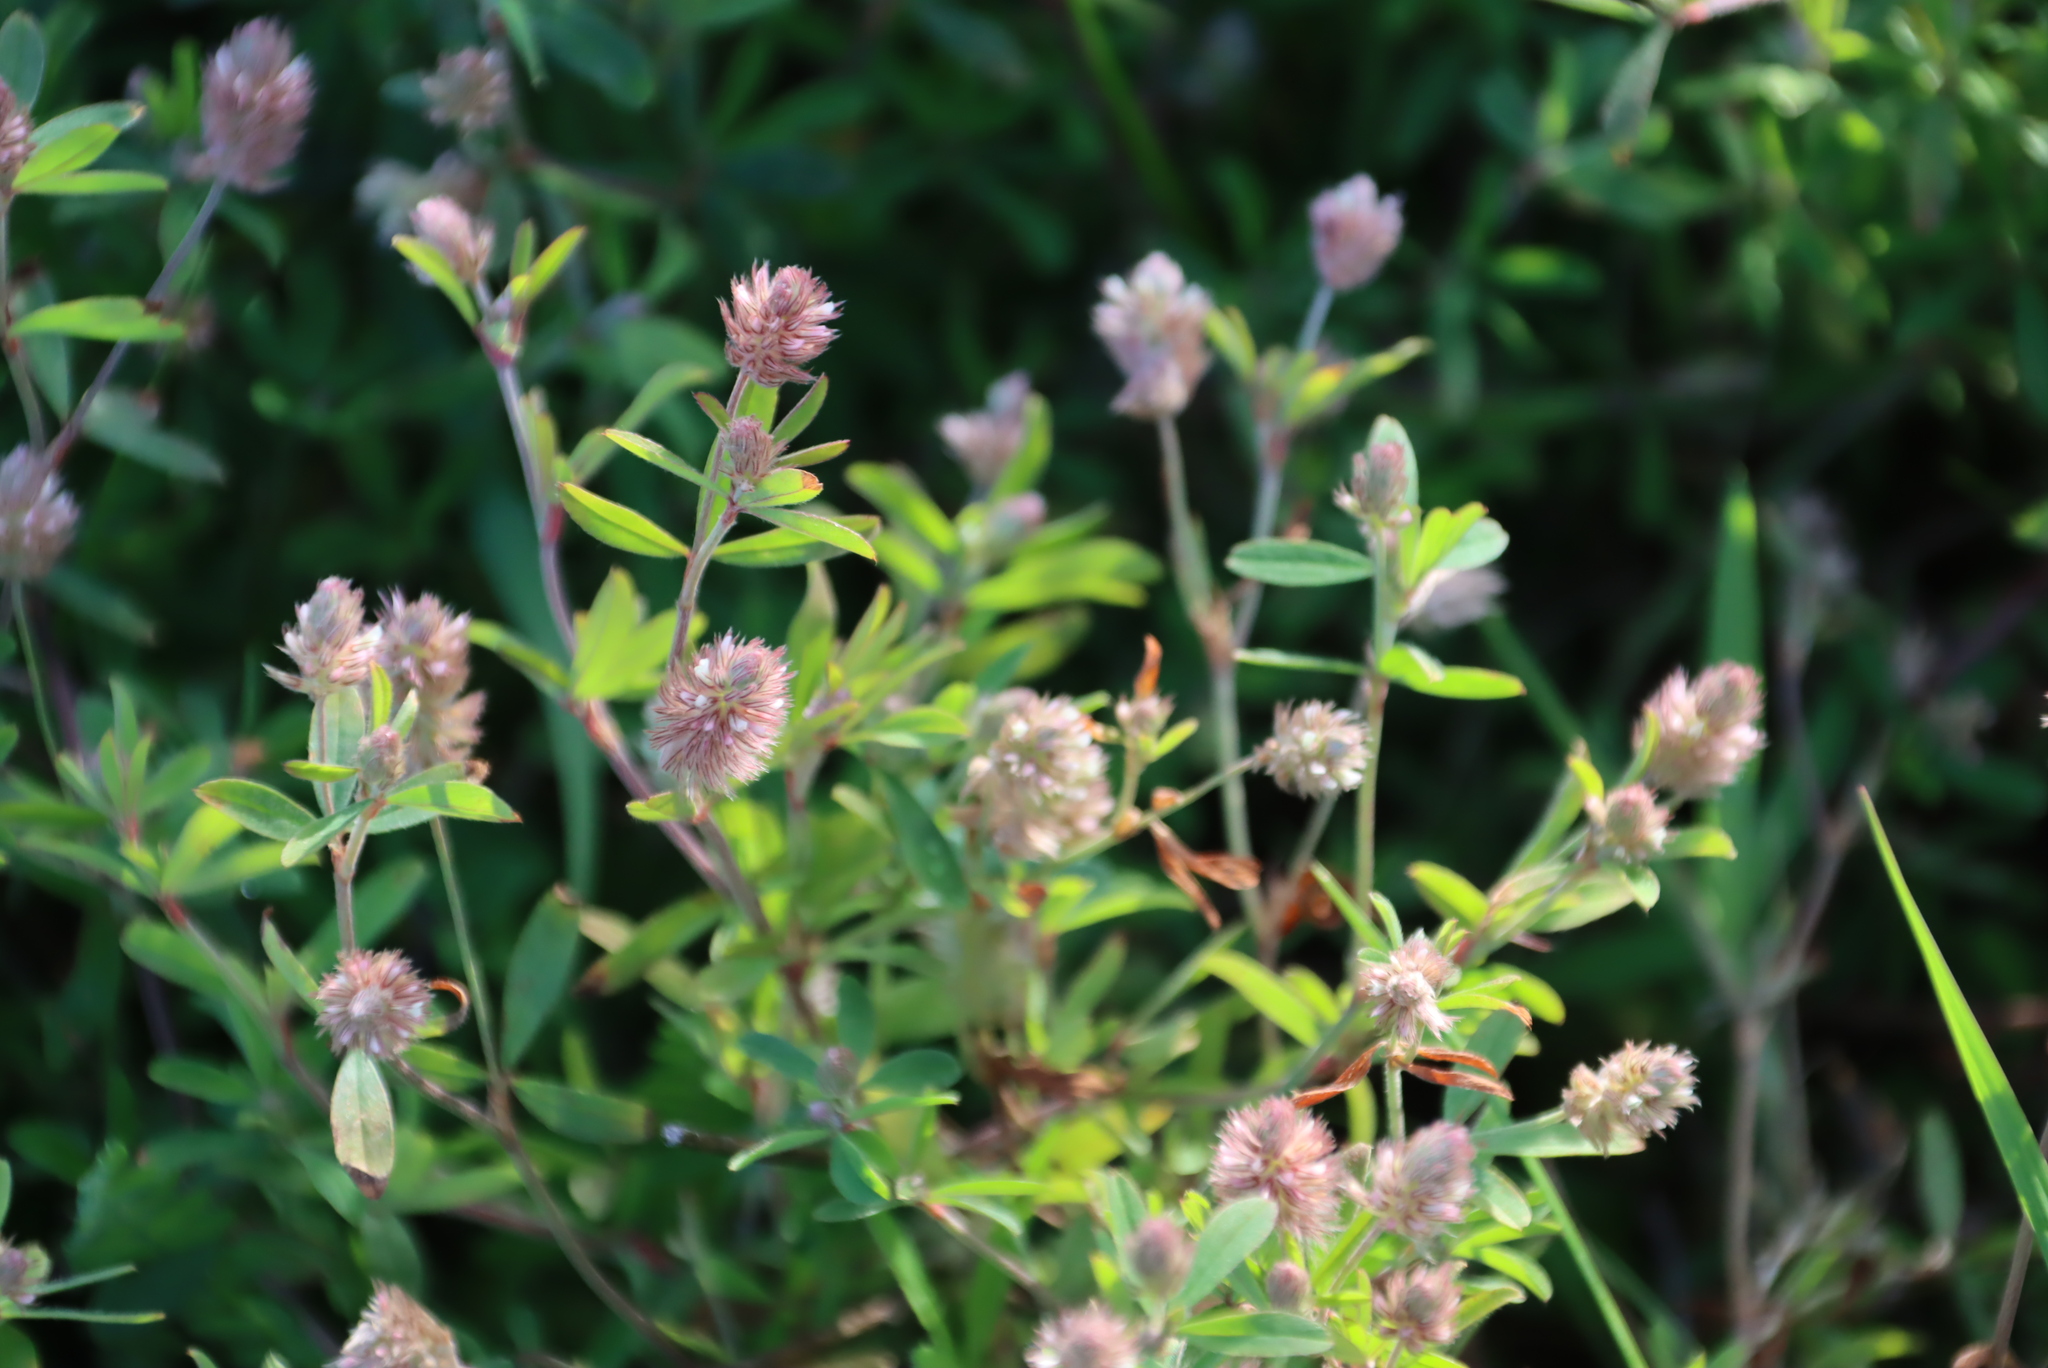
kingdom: Plantae
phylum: Tracheophyta
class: Magnoliopsida
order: Fabales
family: Fabaceae
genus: Trifolium
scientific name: Trifolium arvense
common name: Hare's-foot clover
